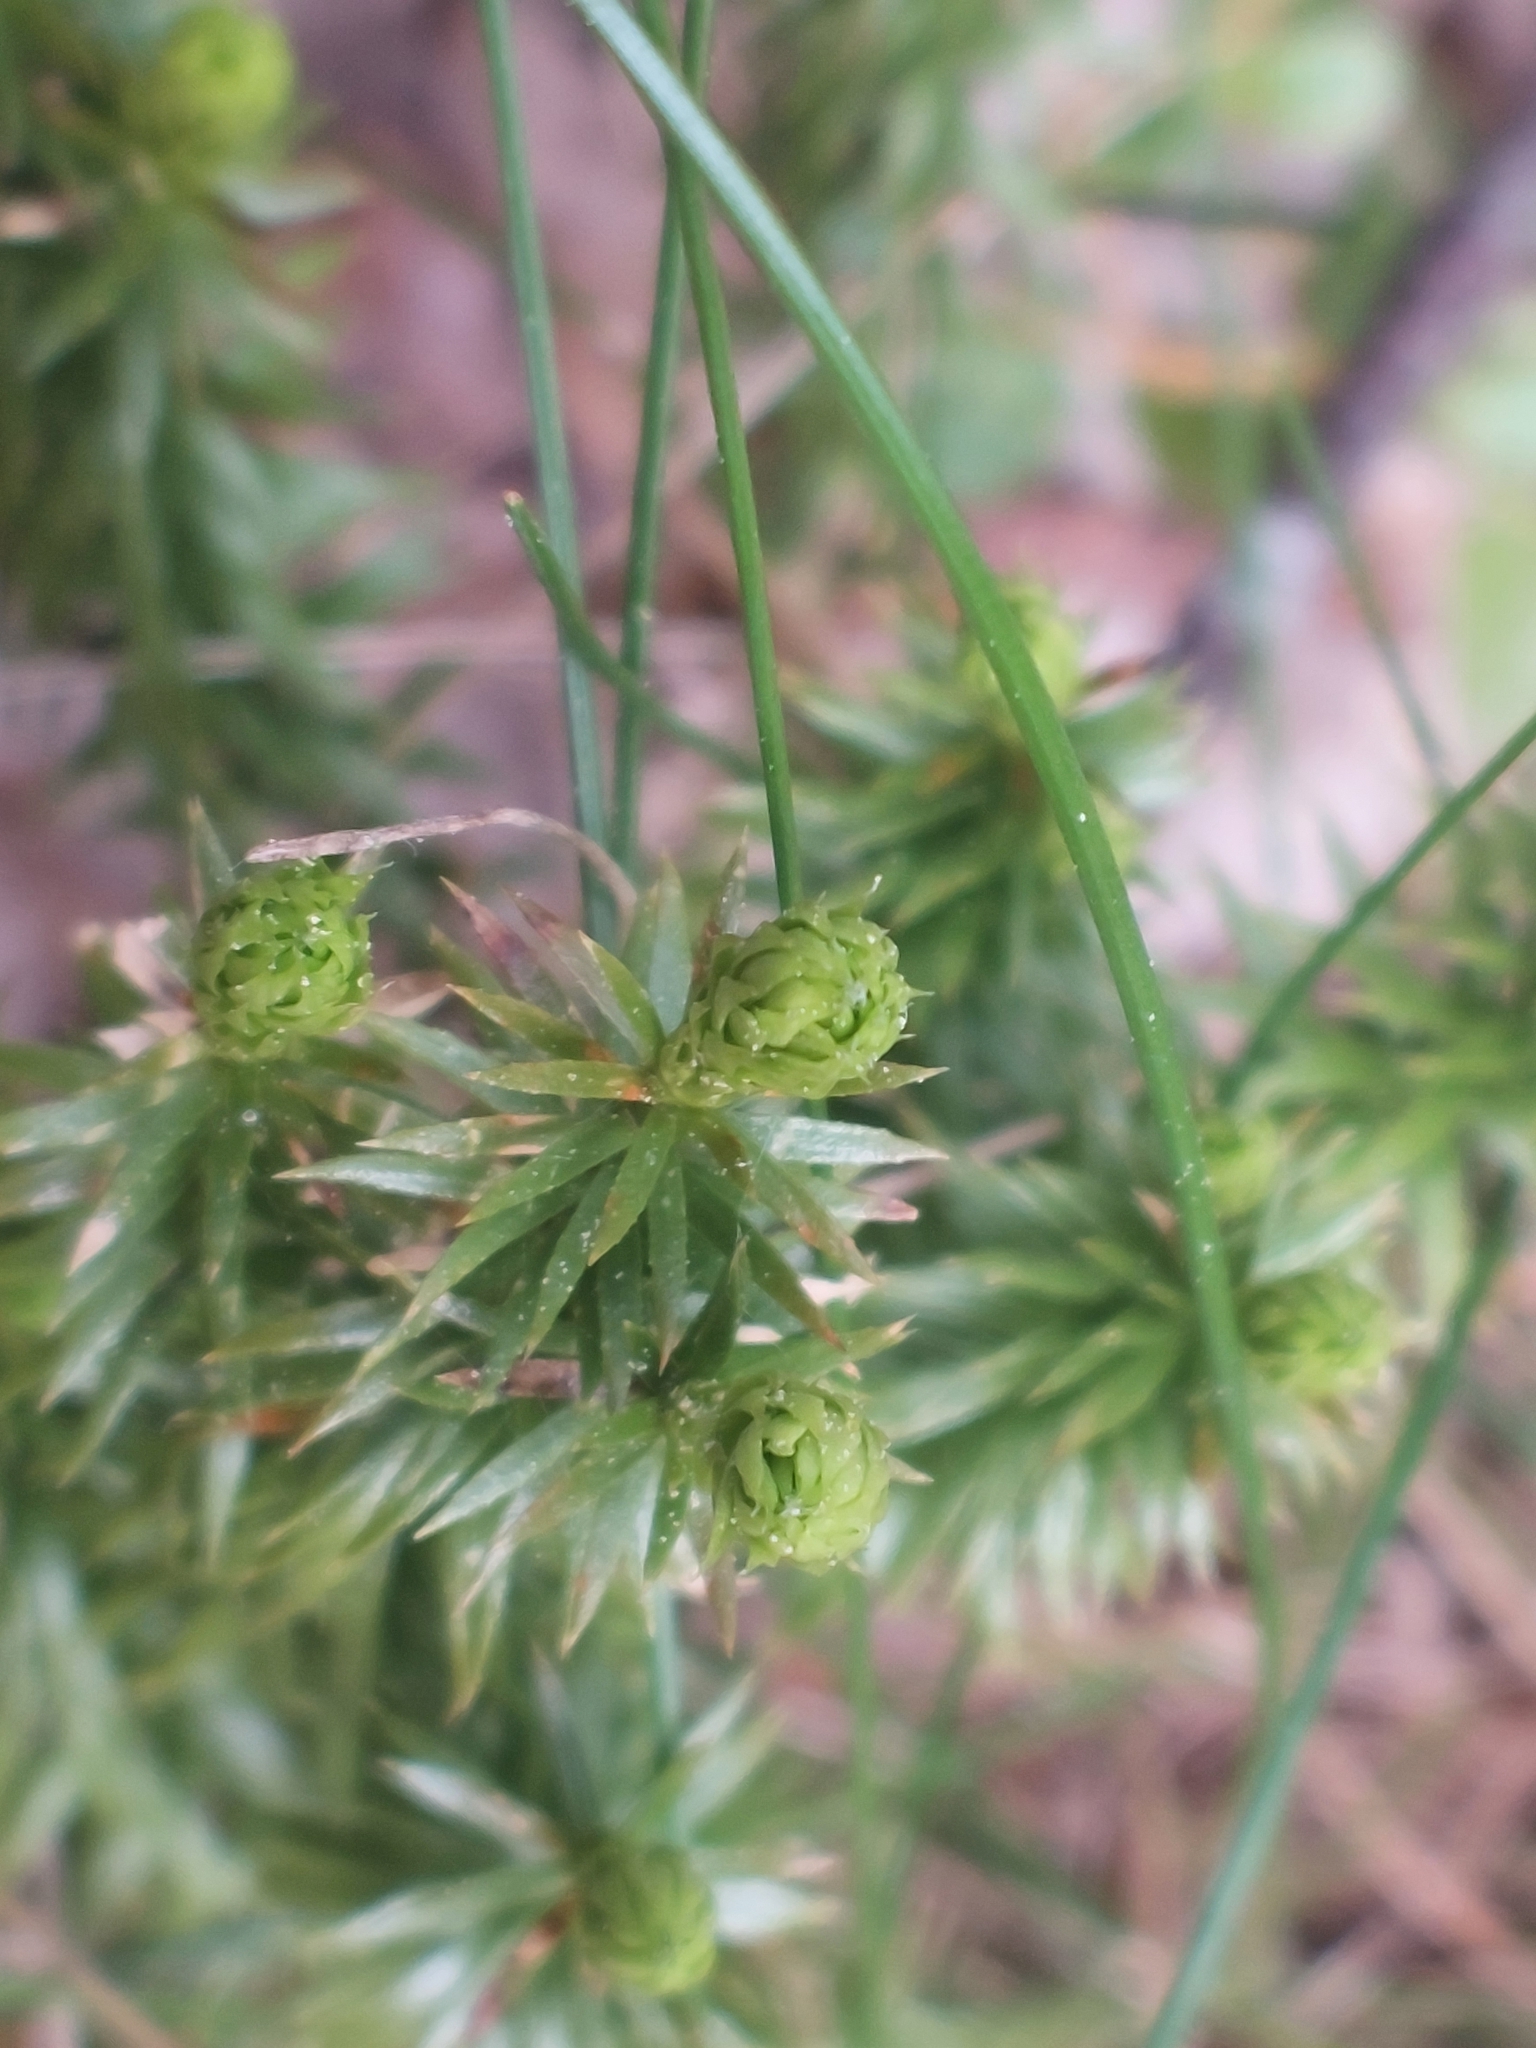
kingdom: Plantae
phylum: Tracheophyta
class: Lycopodiopsida
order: Lycopodiales
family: Lycopodiaceae
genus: Huperzia
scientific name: Huperzia selago
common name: Northern firmoss
